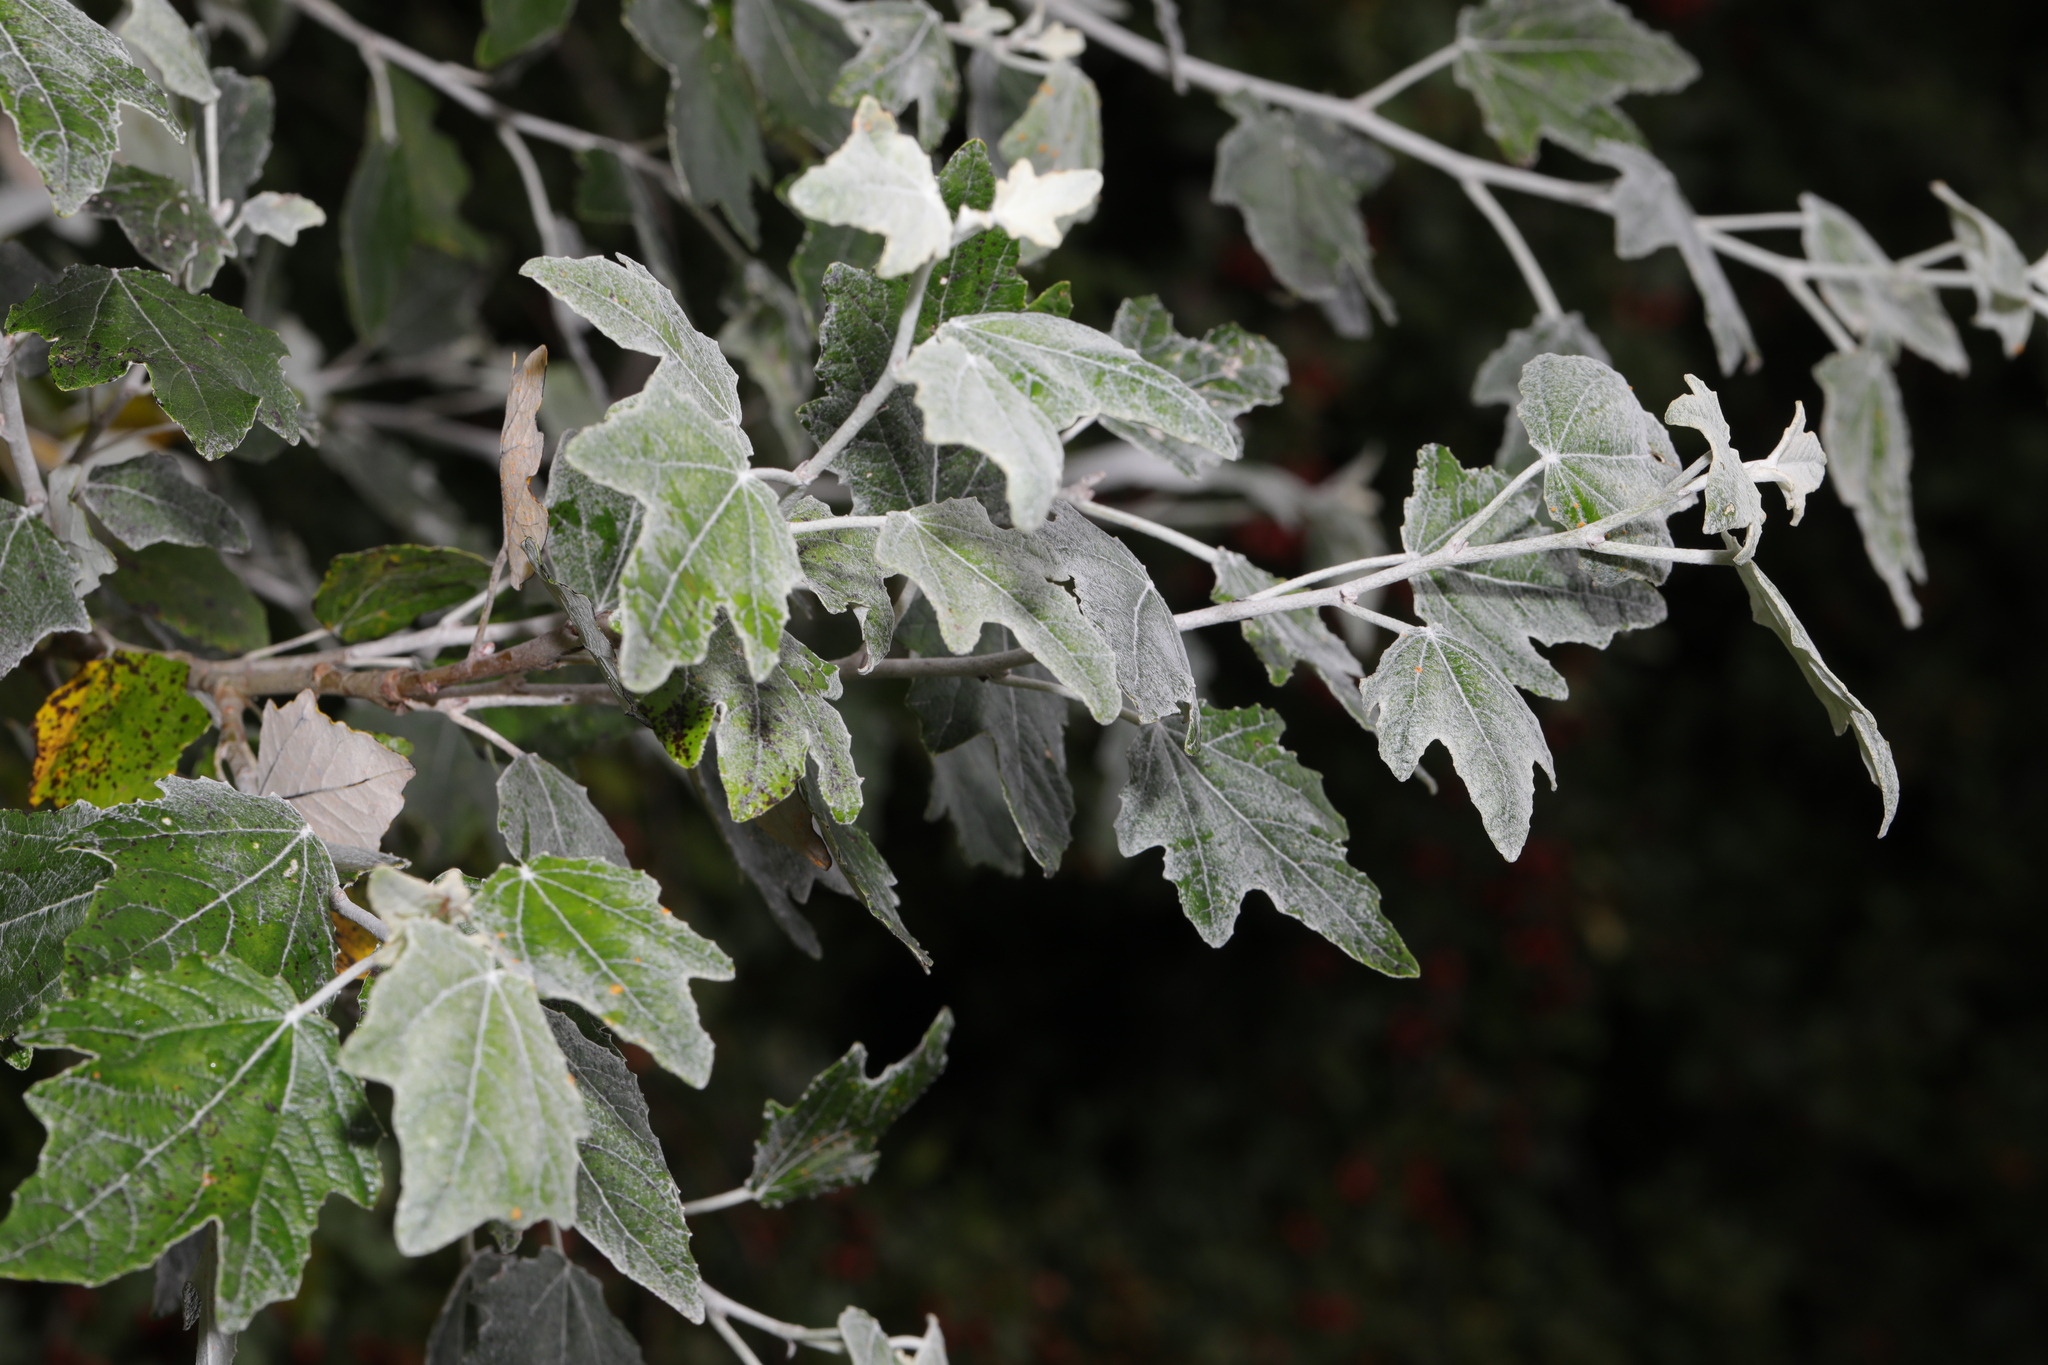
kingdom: Plantae
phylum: Tracheophyta
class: Magnoliopsida
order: Malpighiales
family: Salicaceae
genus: Populus
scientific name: Populus alba
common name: White poplar
